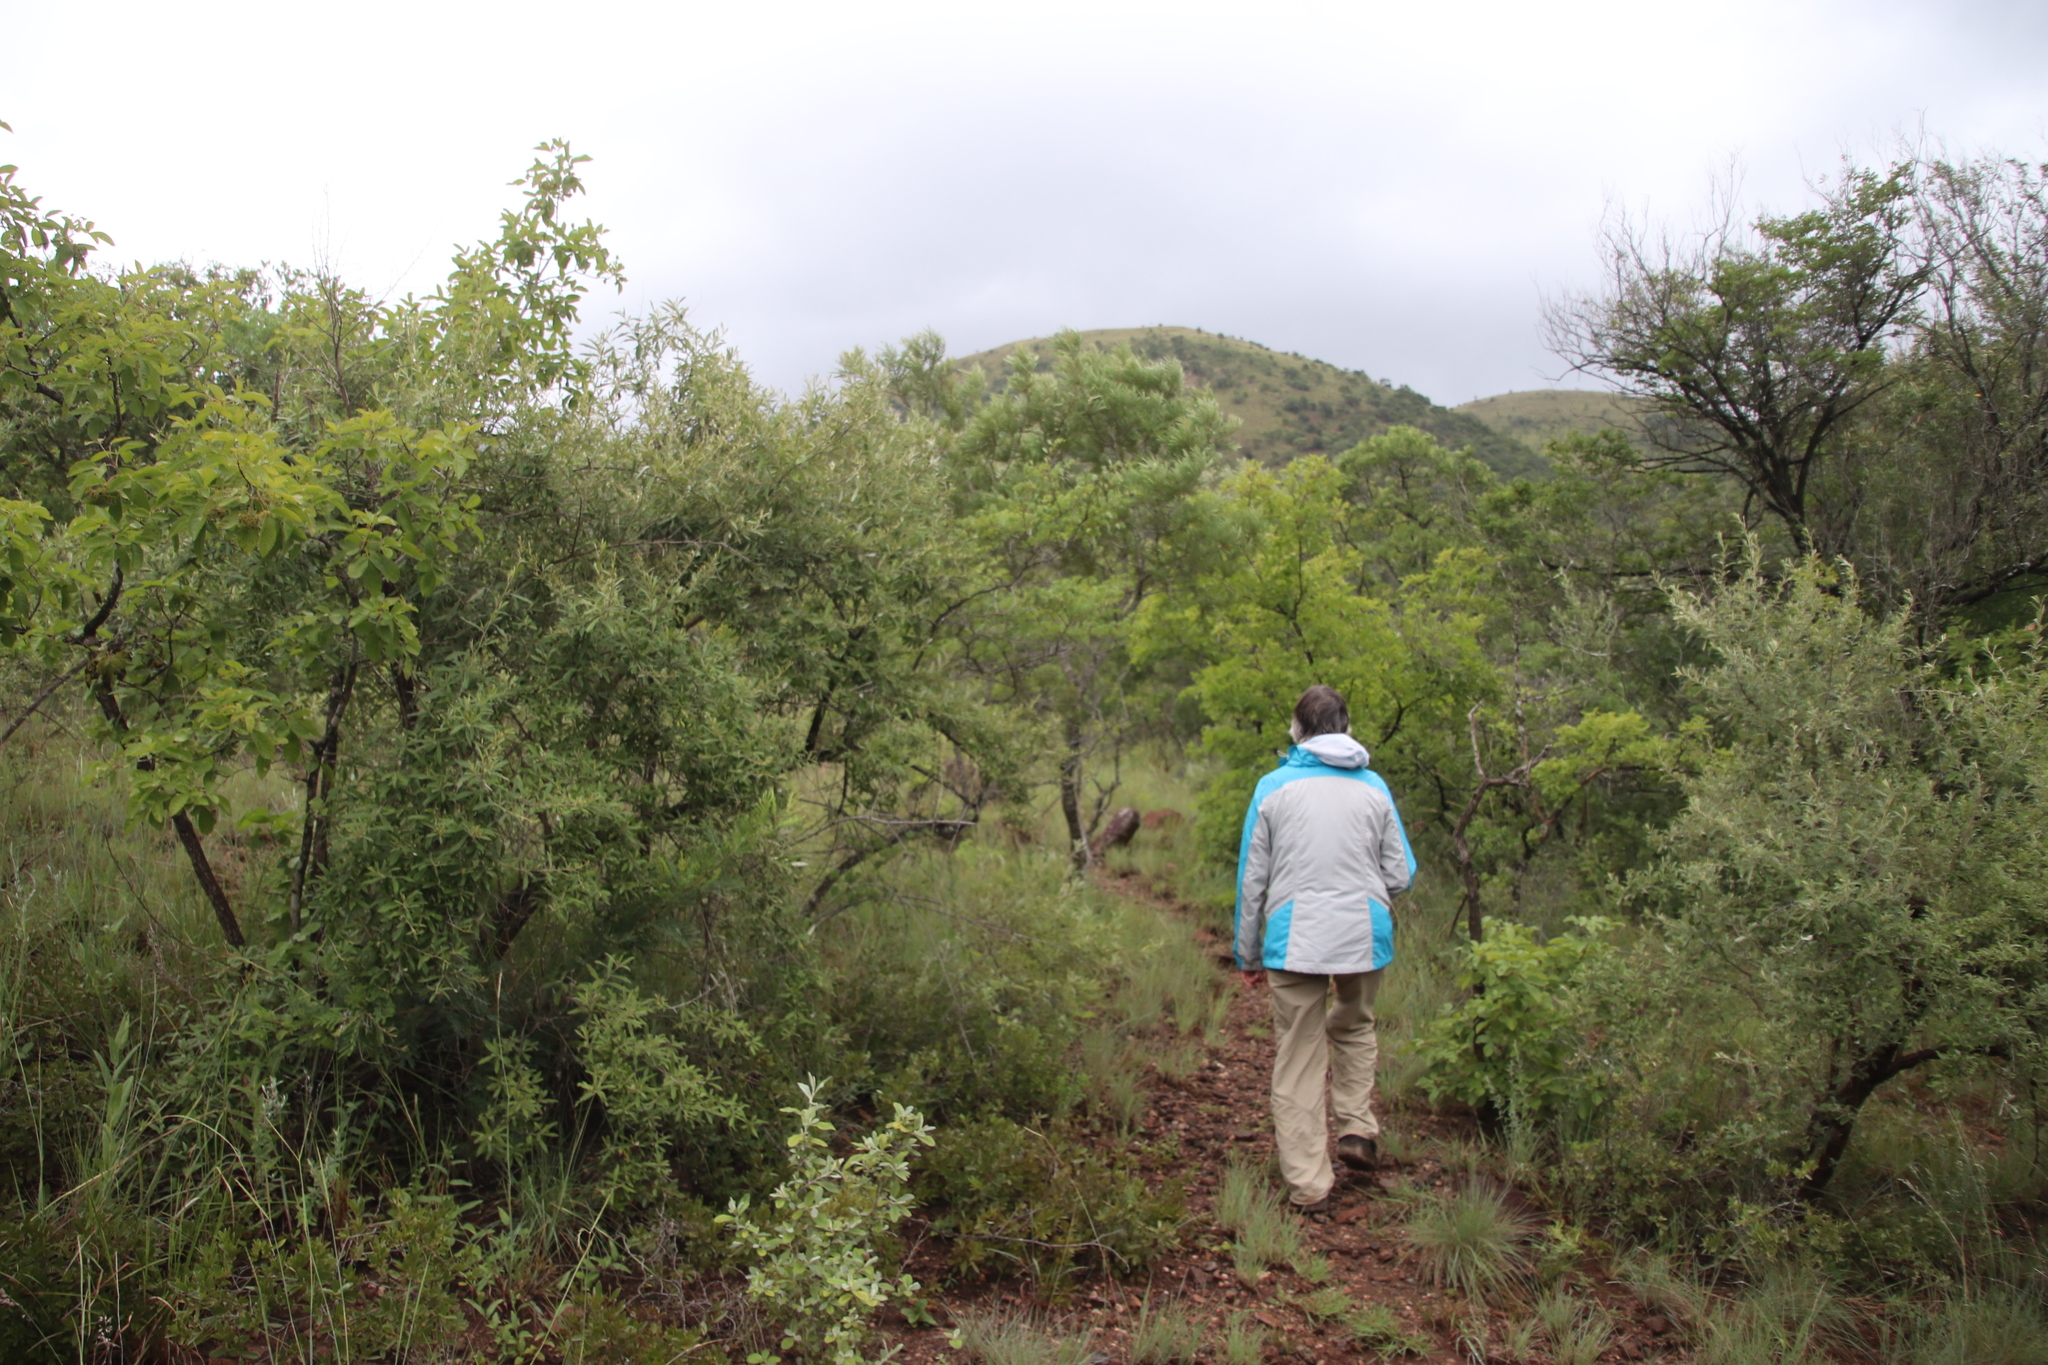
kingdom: Plantae
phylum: Tracheophyta
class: Magnoliopsida
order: Asterales
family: Asteraceae
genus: Tarchonanthus
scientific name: Tarchonanthus parvicapitulatus
